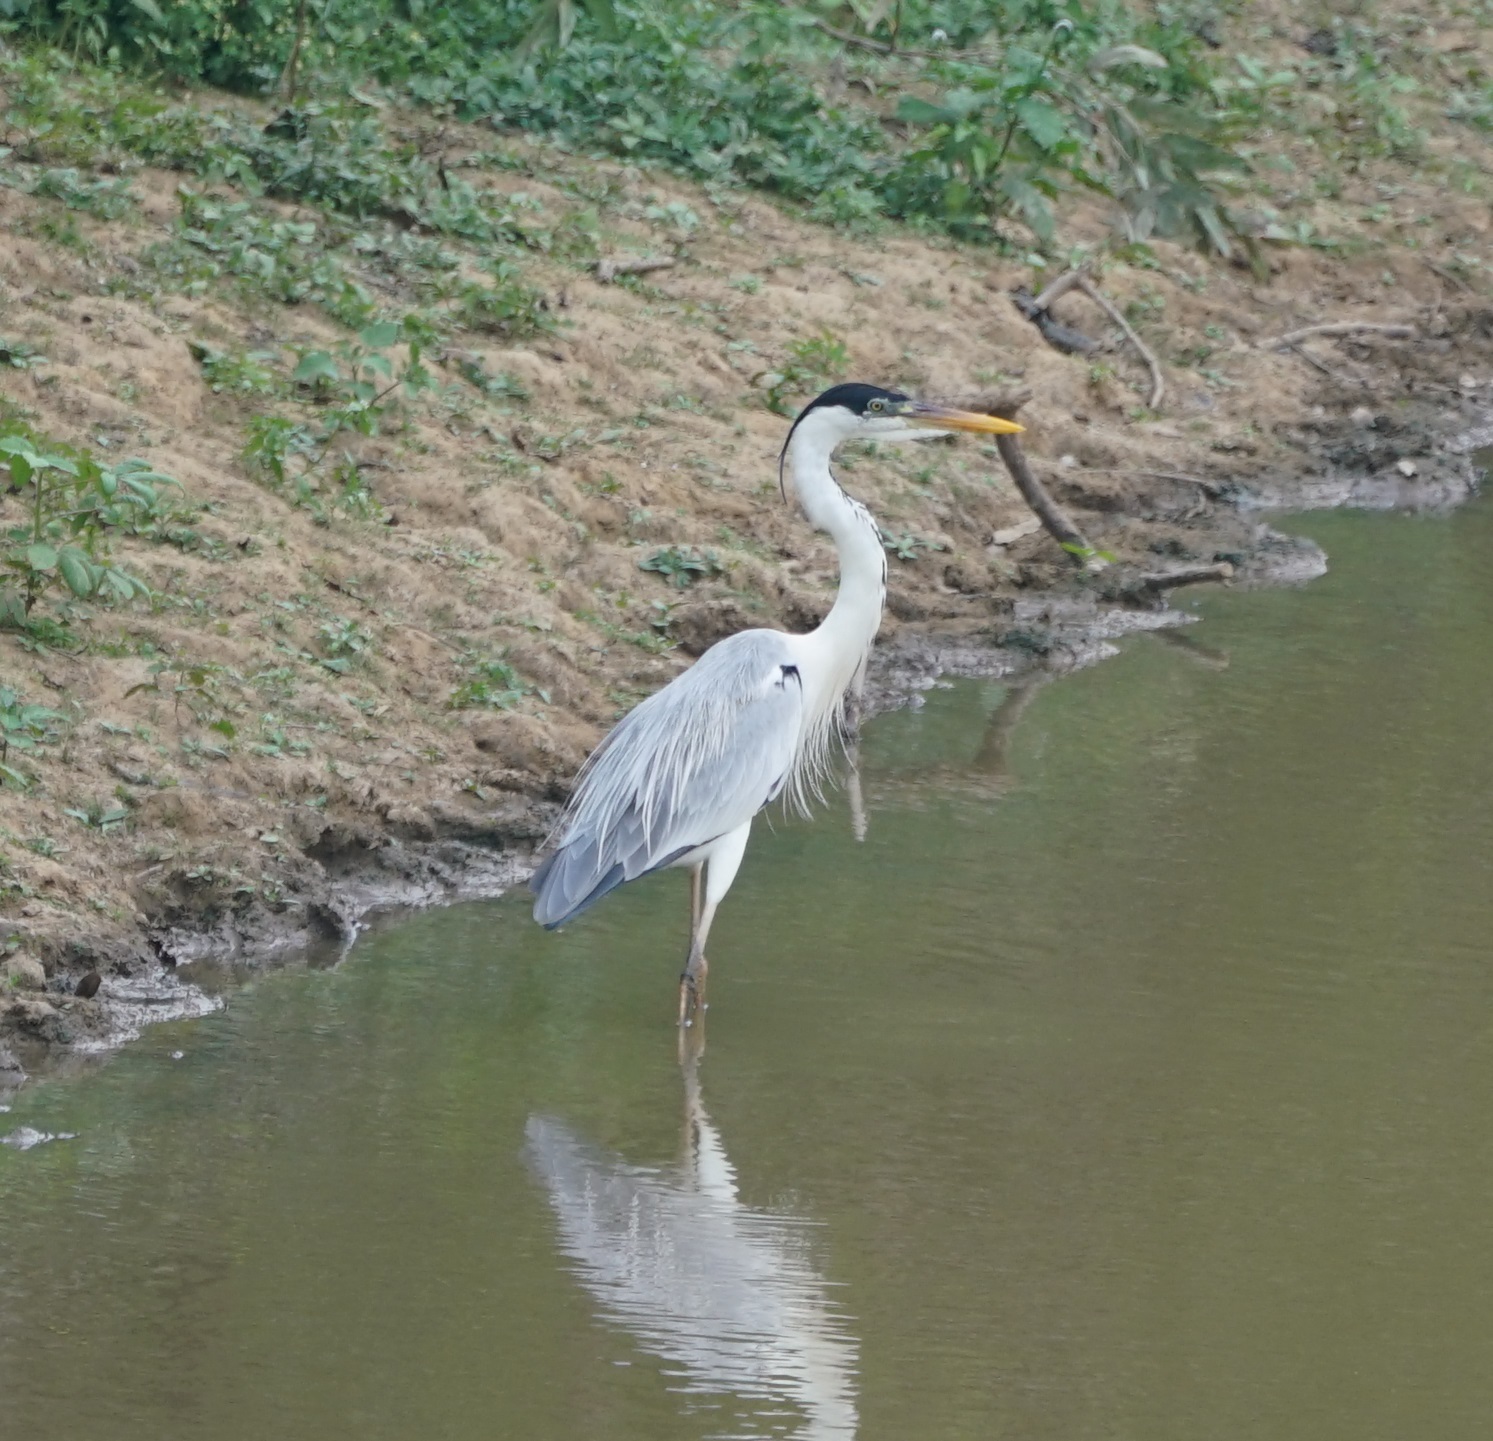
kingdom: Animalia
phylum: Chordata
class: Aves
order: Pelecaniformes
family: Ardeidae
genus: Ardea
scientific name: Ardea cocoi
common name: Cocoi heron
